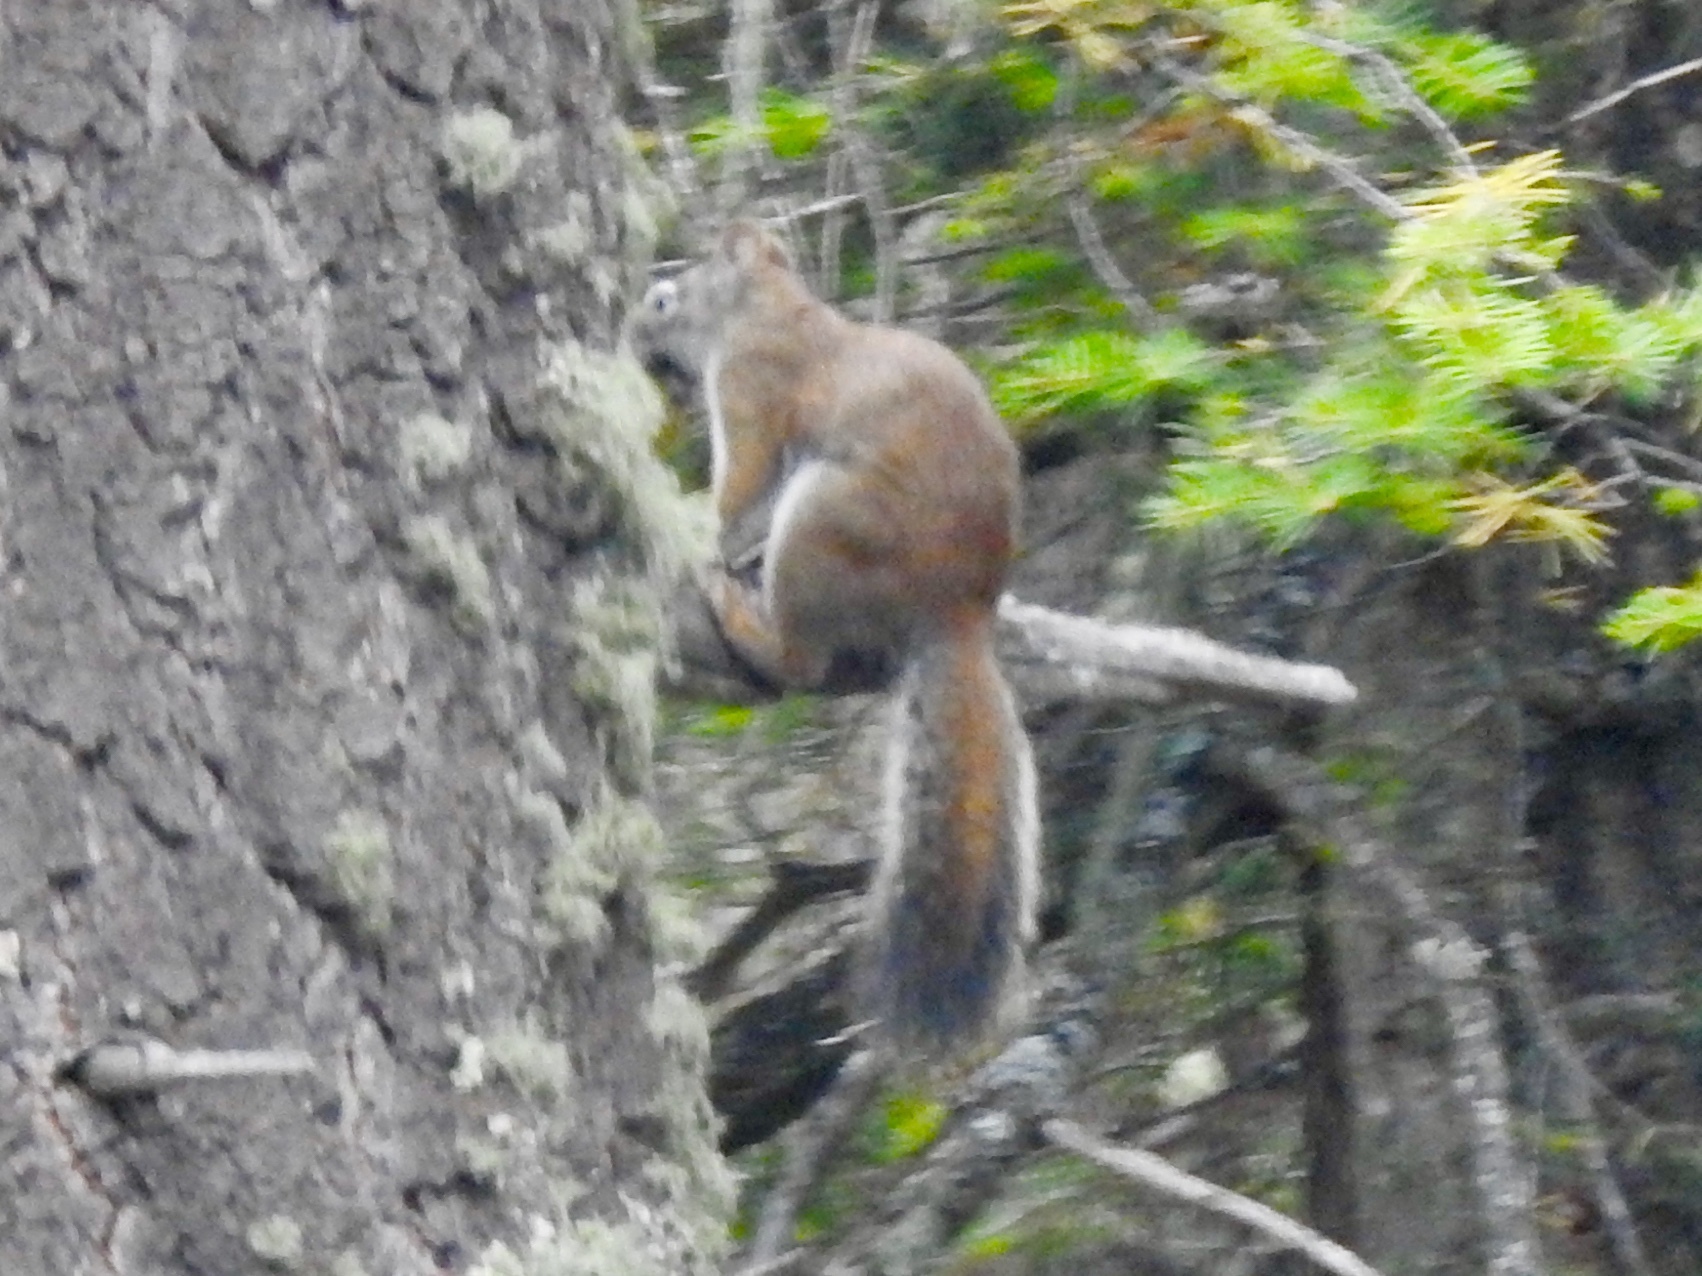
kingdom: Animalia
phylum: Chordata
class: Mammalia
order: Rodentia
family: Sciuridae
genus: Tamiasciurus
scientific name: Tamiasciurus hudsonicus
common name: Red squirrel
